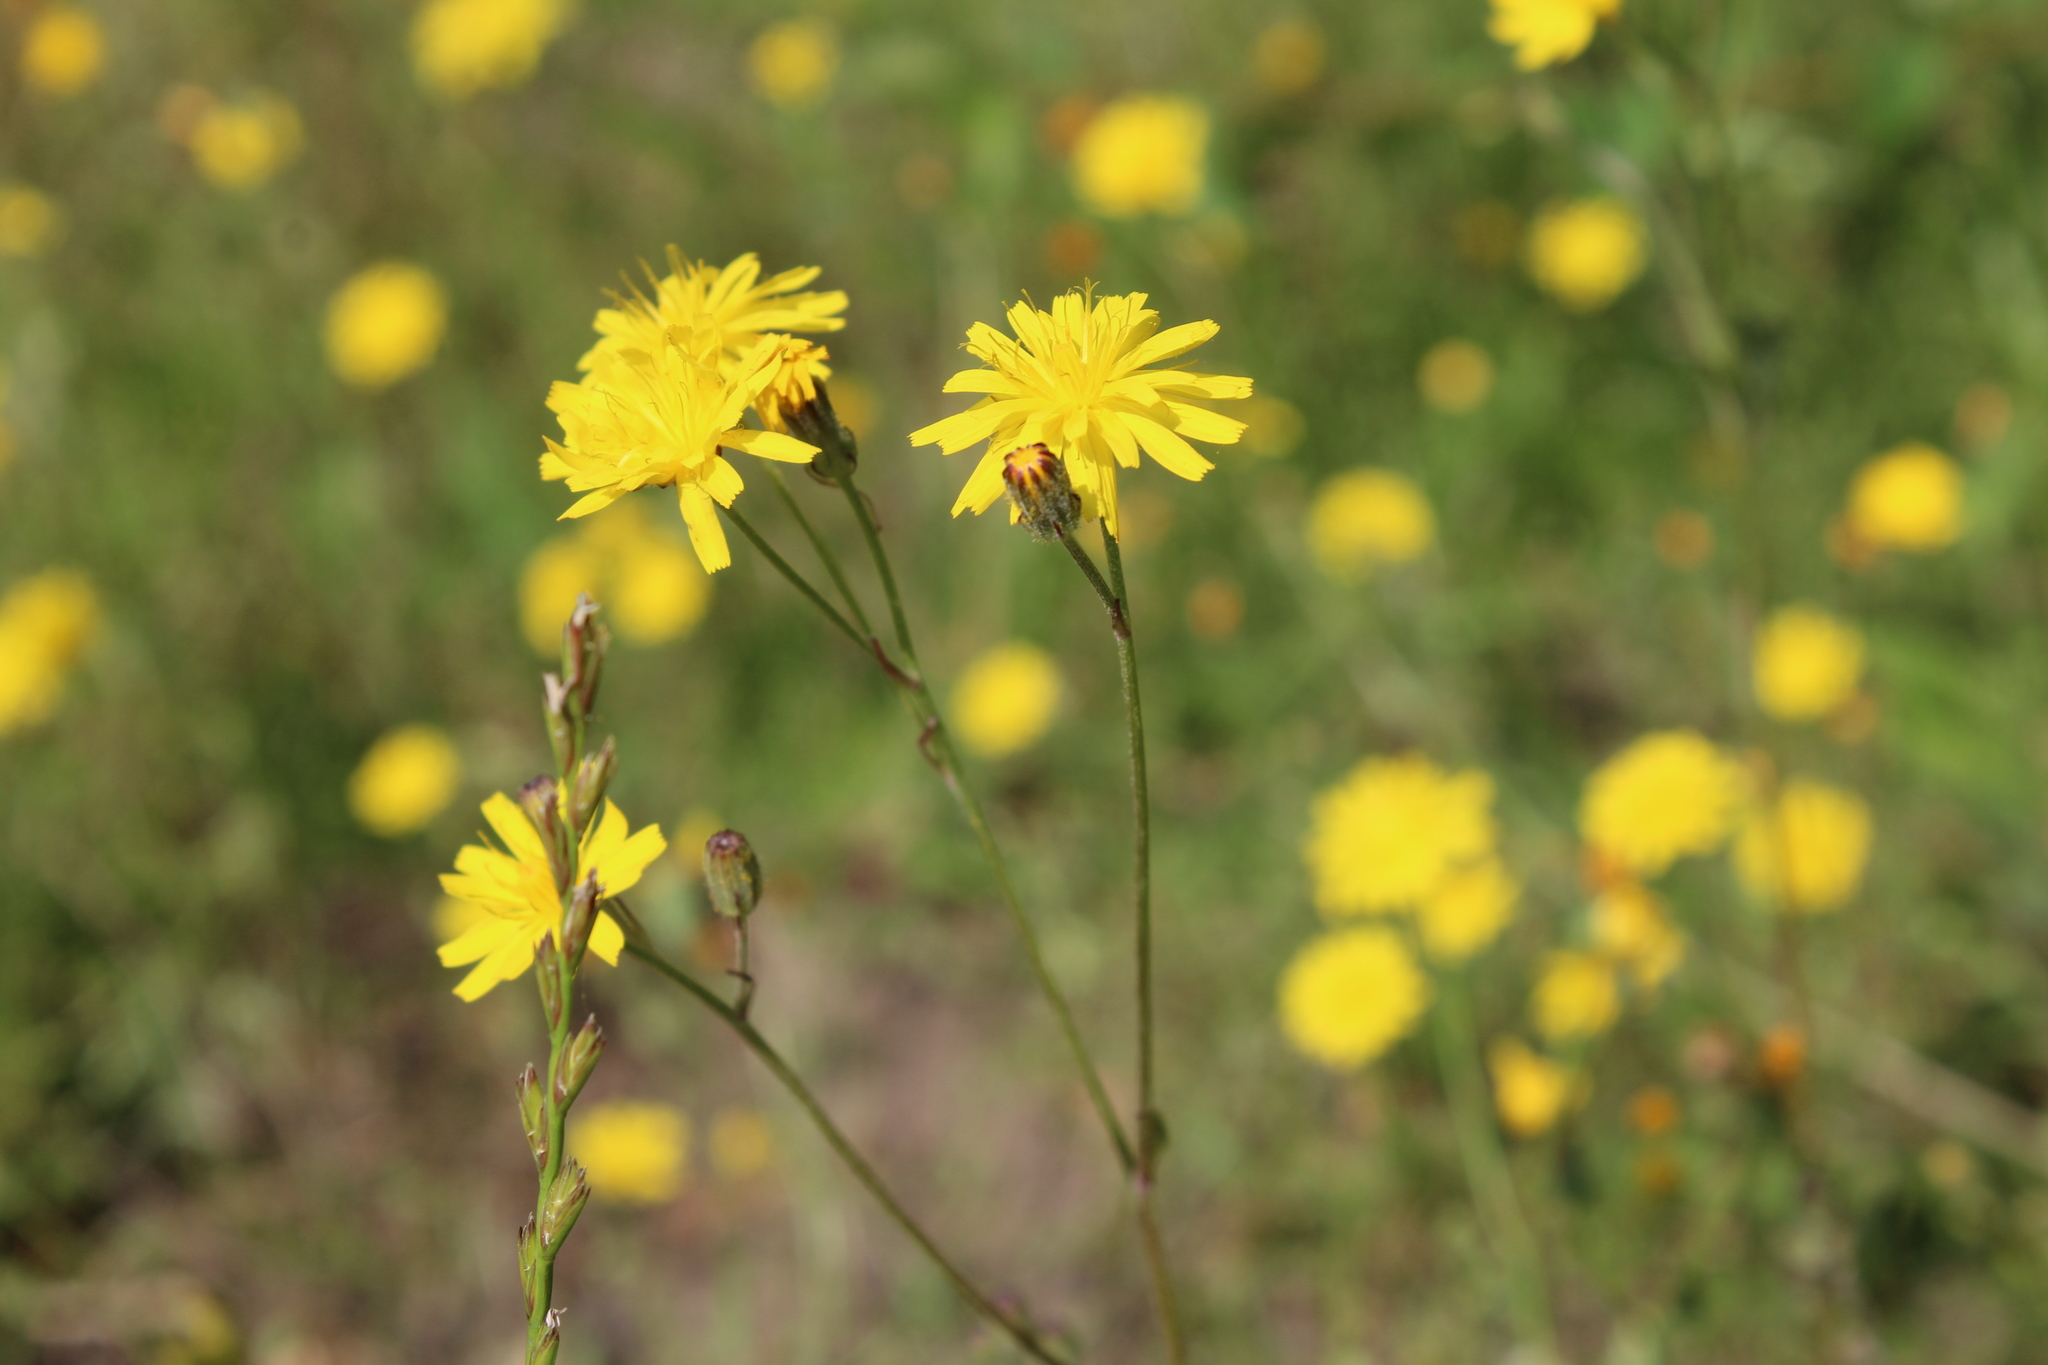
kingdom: Plantae
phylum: Tracheophyta
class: Magnoliopsida
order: Asterales
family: Asteraceae
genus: Crepis
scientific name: Crepis capillaris
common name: Smooth hawksbeard
